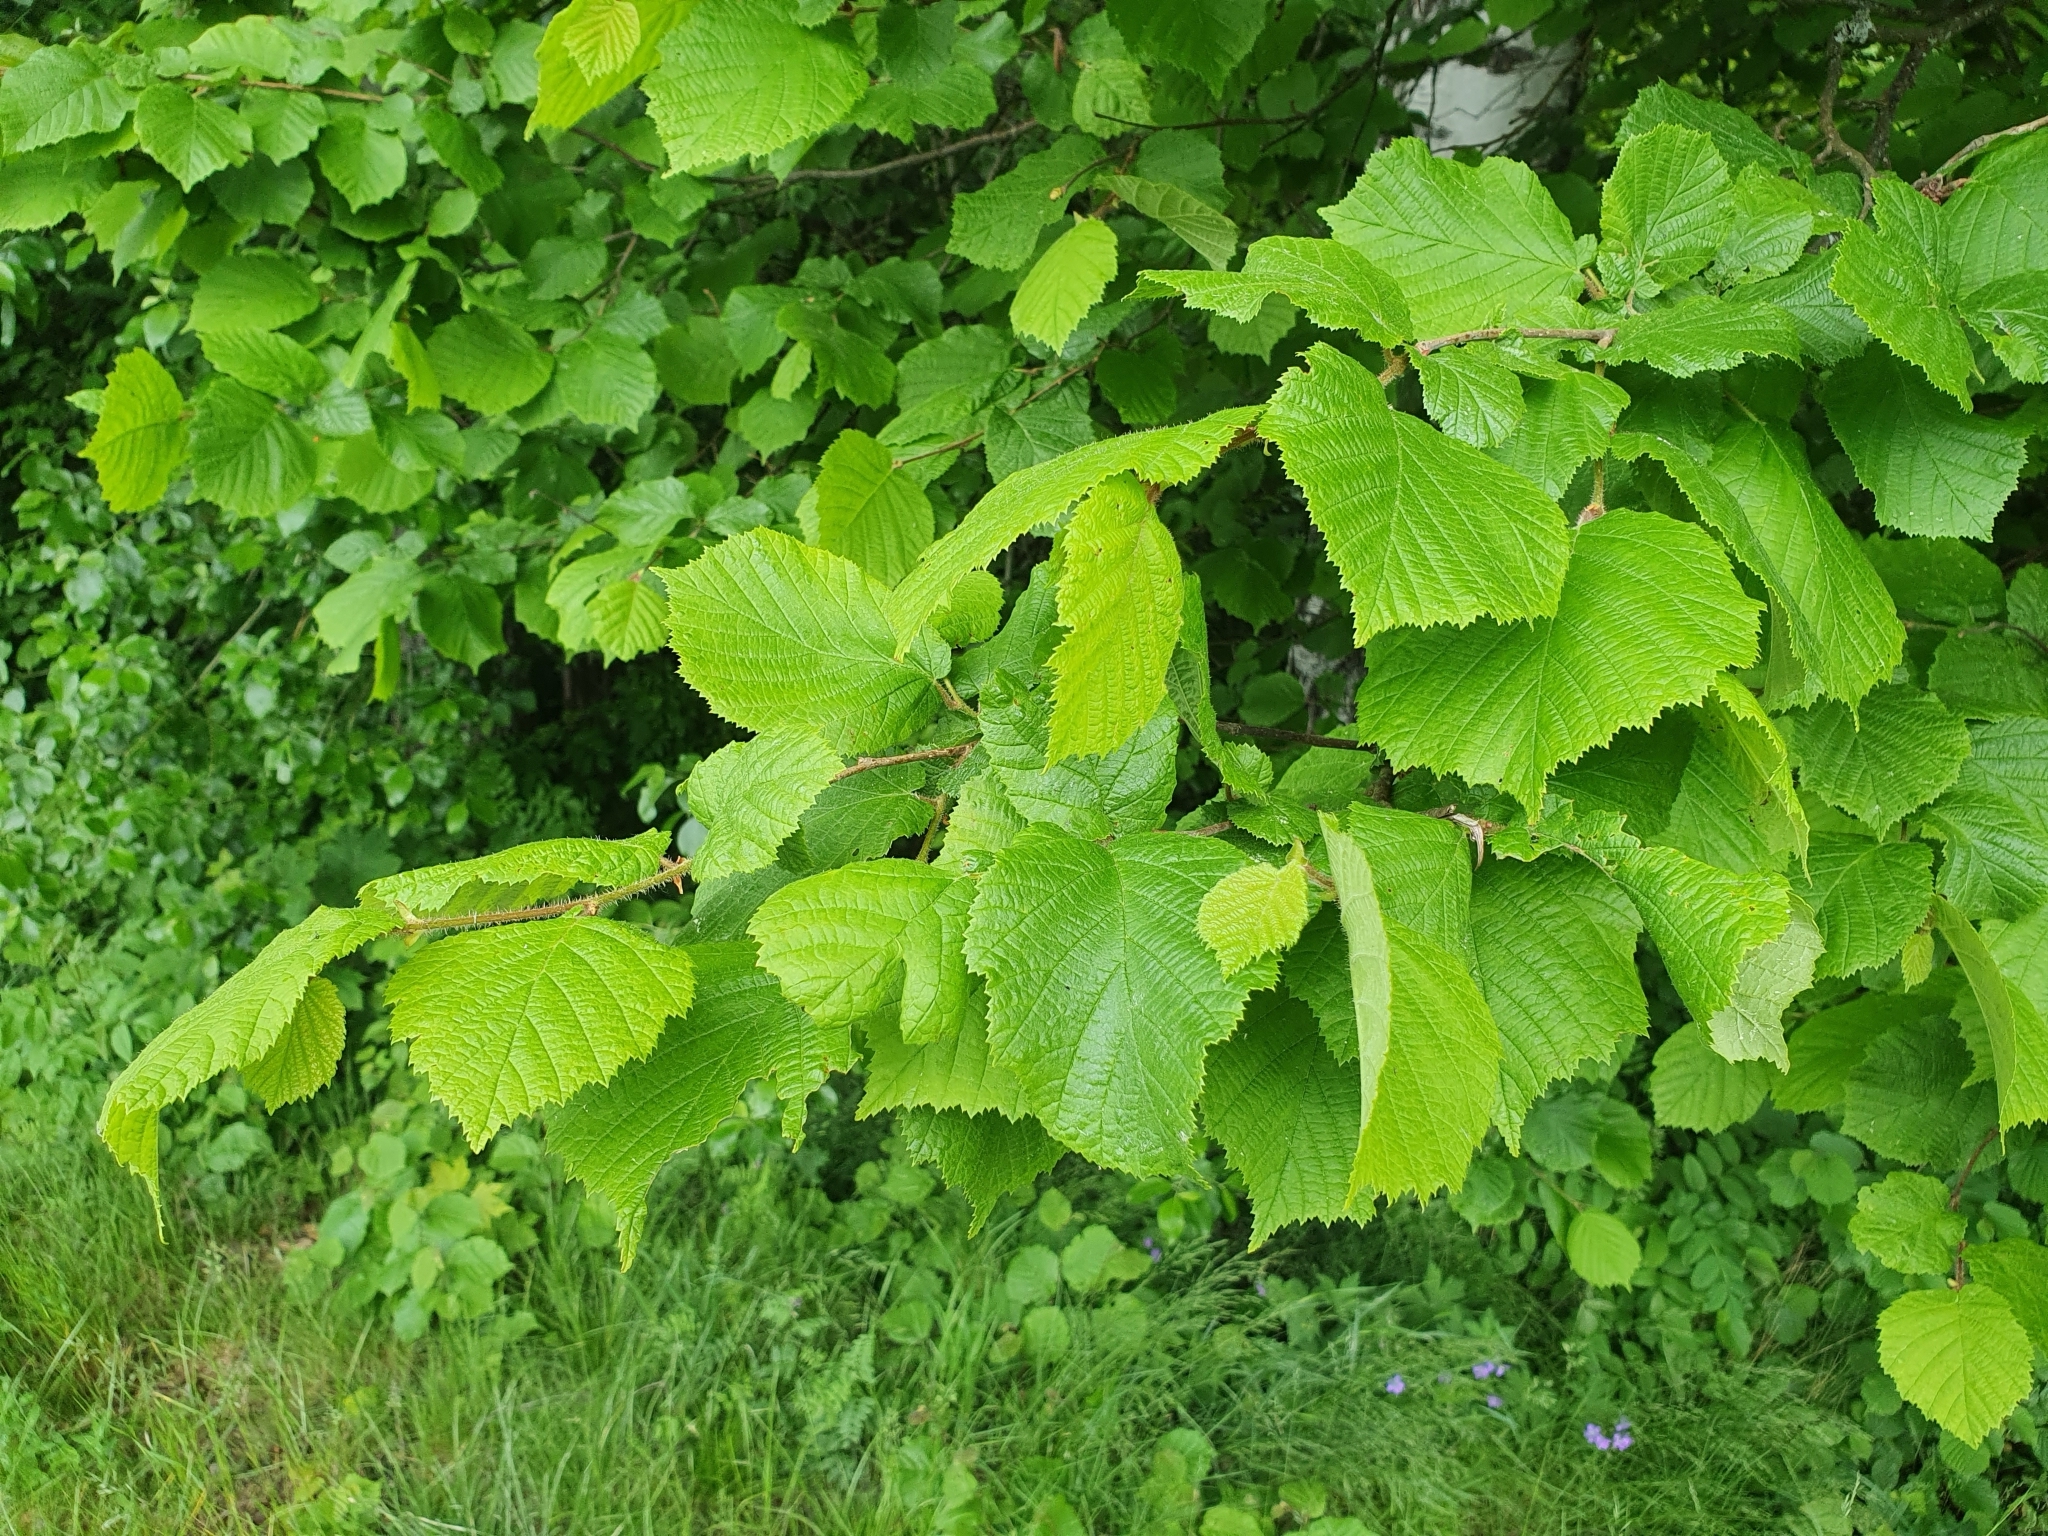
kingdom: Plantae
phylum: Tracheophyta
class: Magnoliopsida
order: Fagales
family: Betulaceae
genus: Corylus
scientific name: Corylus avellana
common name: European hazel
